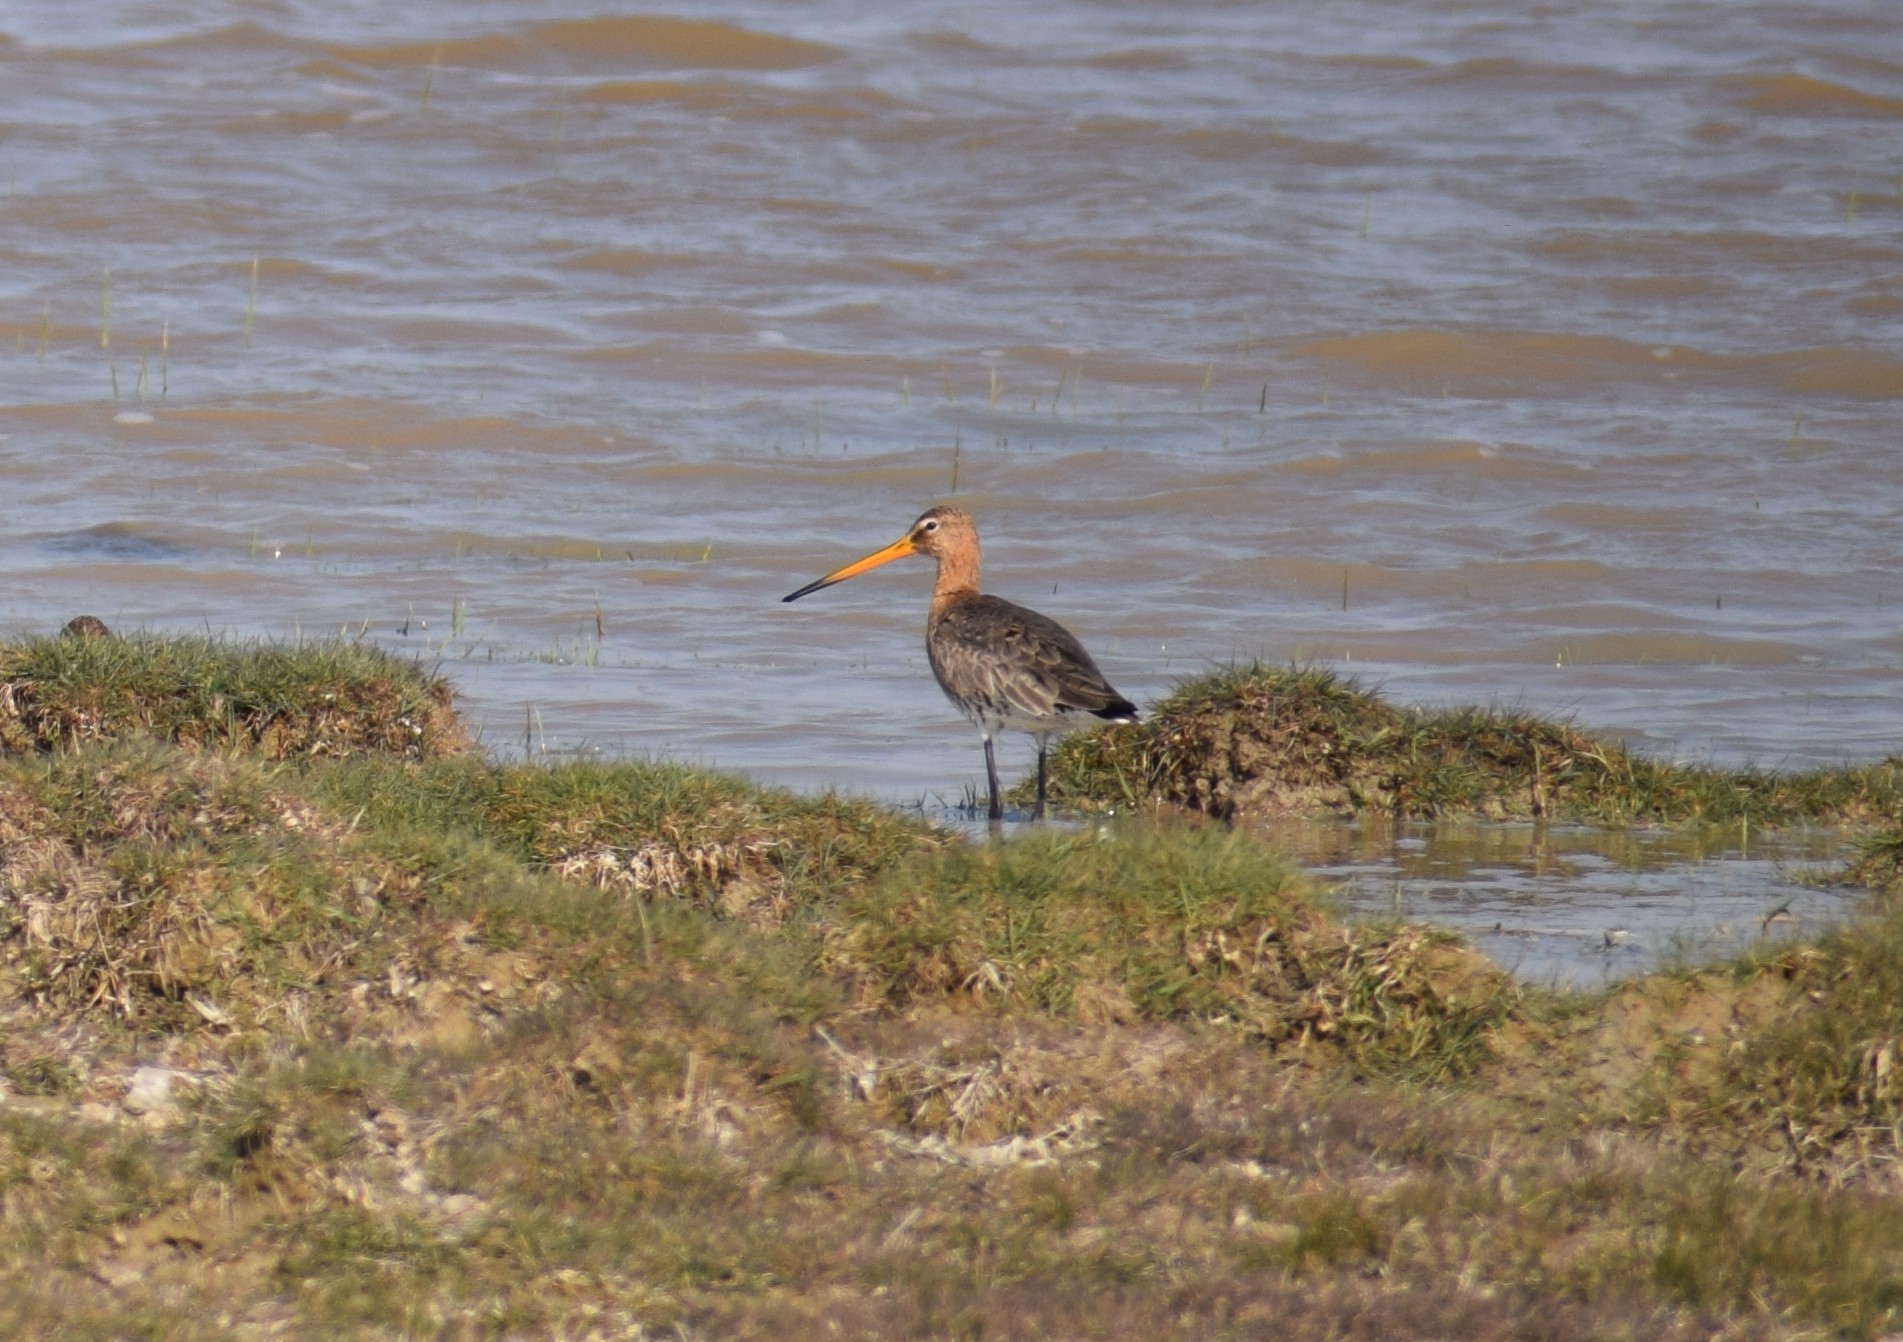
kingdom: Animalia
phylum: Chordata
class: Aves
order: Charadriiformes
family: Scolopacidae
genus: Limosa
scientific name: Limosa limosa
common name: Black-tailed godwit
